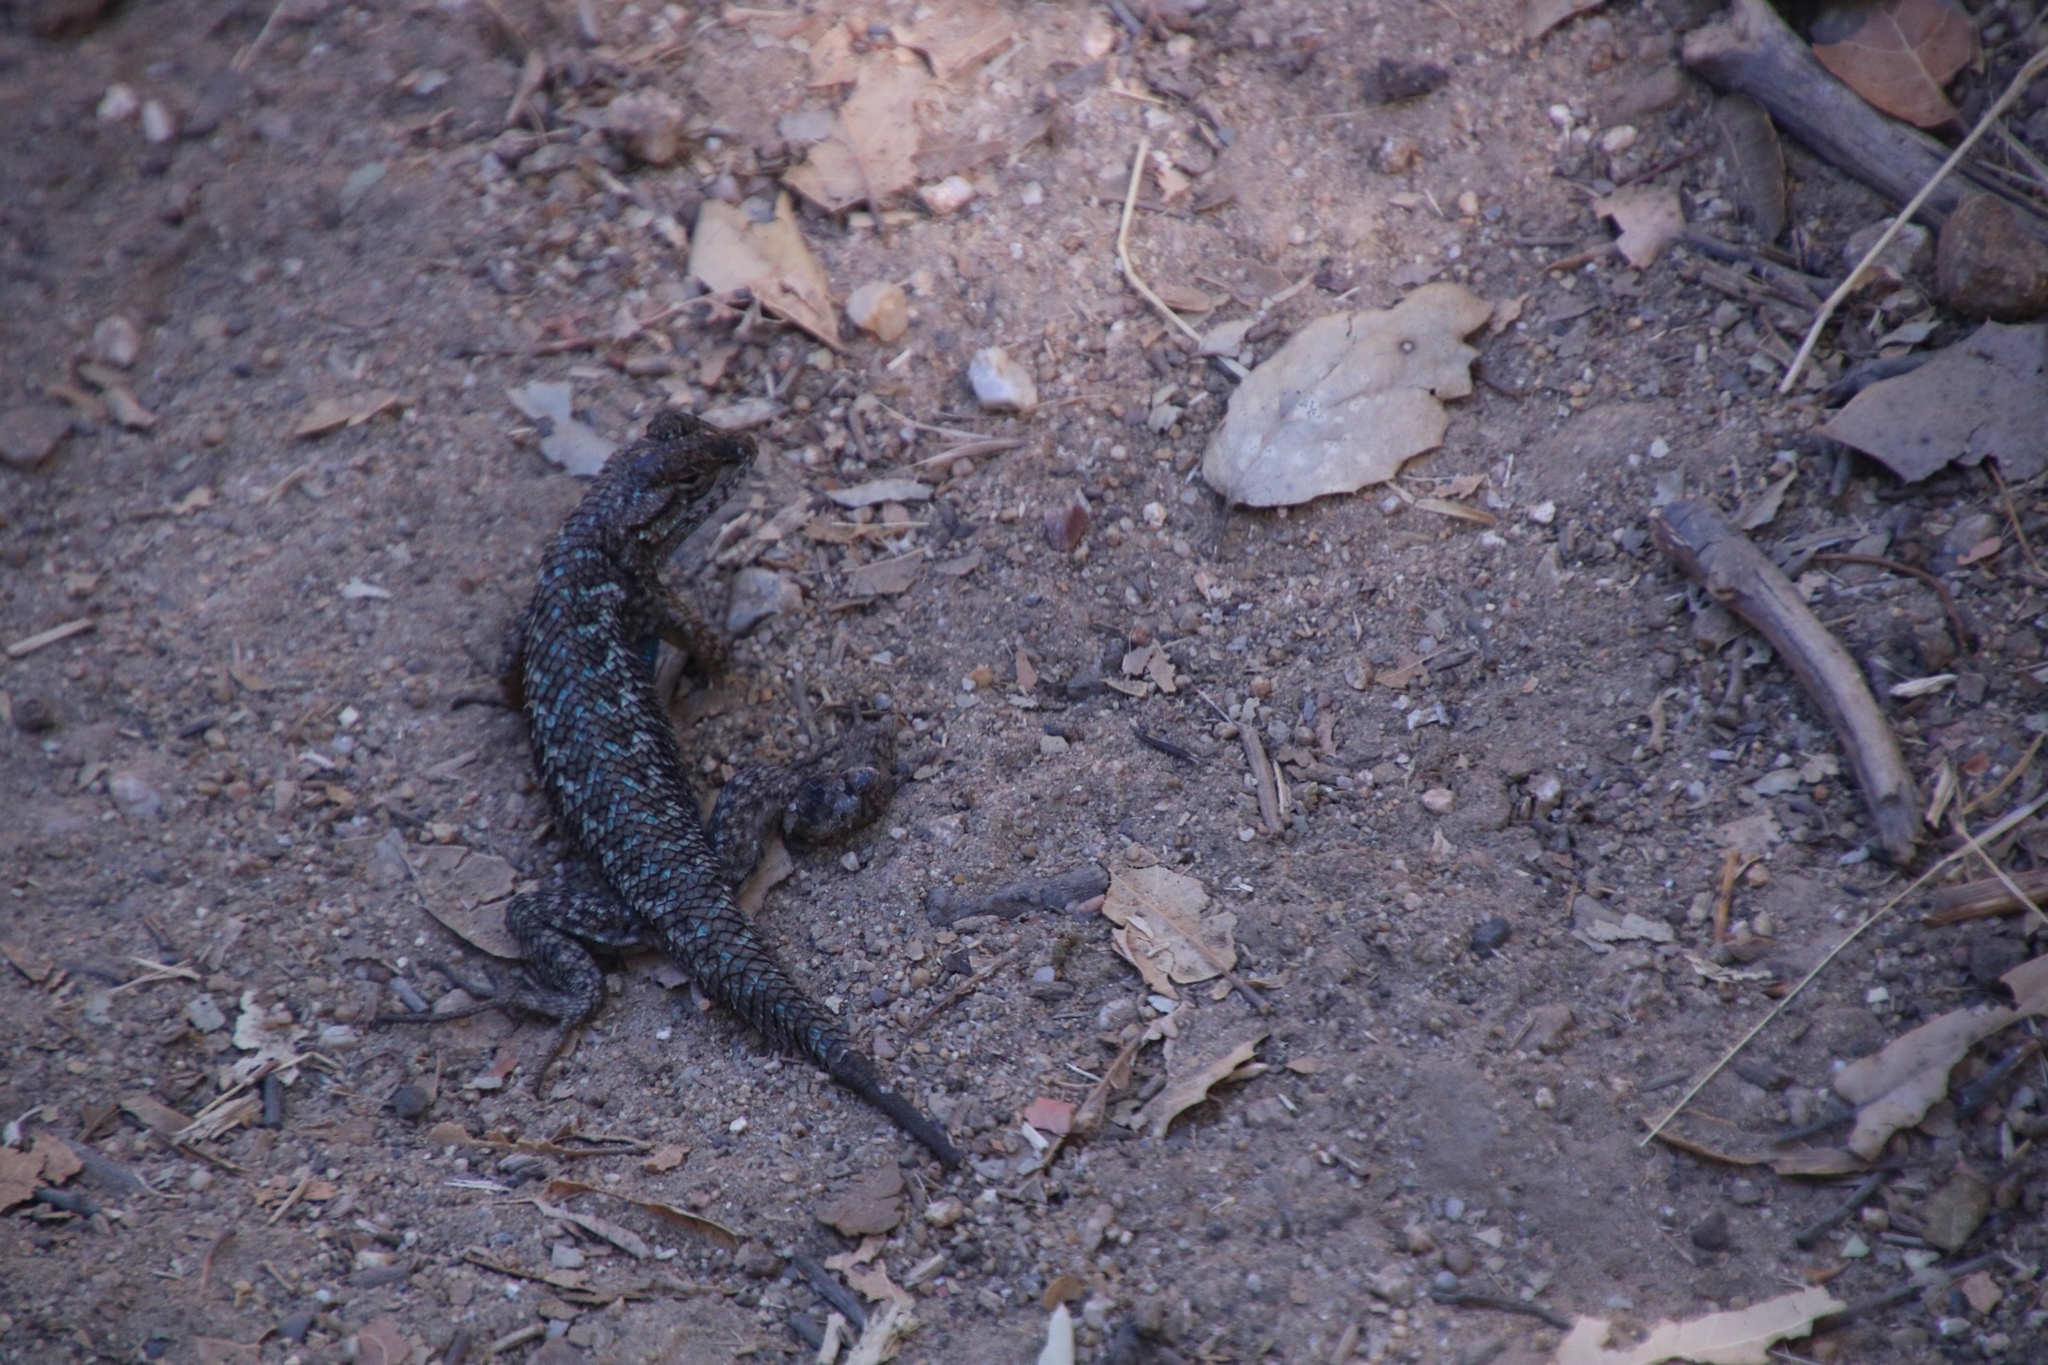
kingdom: Animalia
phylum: Chordata
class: Squamata
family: Phrynosomatidae
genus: Sceloporus
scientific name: Sceloporus occidentalis
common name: Western fence lizard
